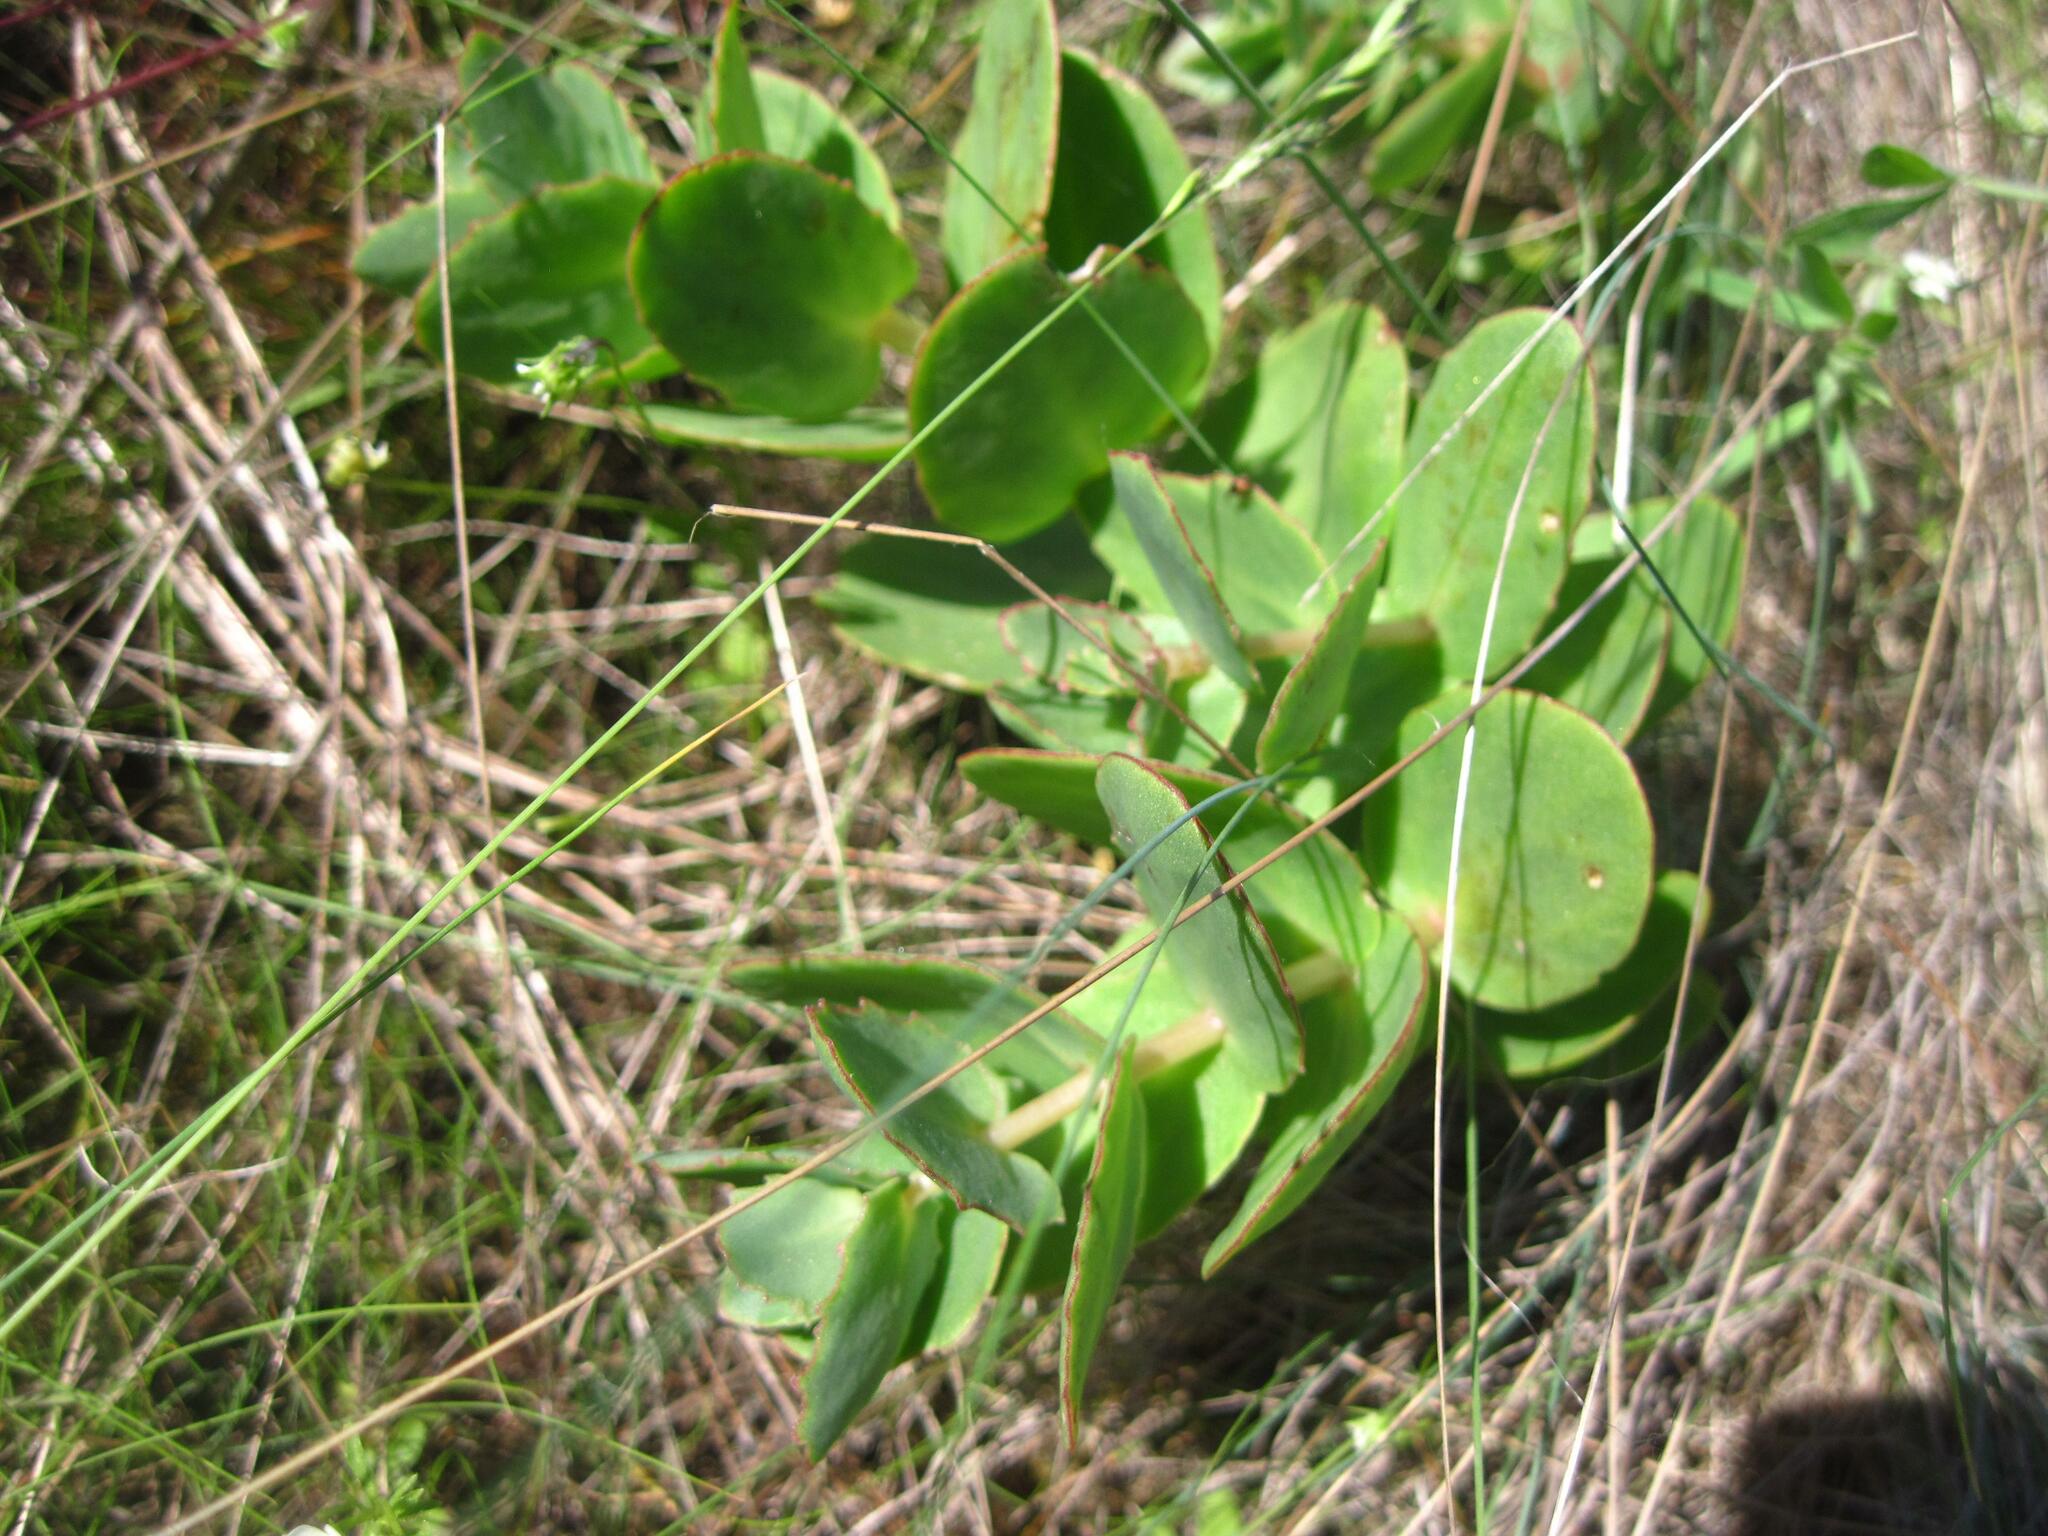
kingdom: Plantae
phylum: Tracheophyta
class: Magnoliopsida
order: Saxifragales
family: Crassulaceae
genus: Hylotelephium
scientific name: Hylotelephium maximum
